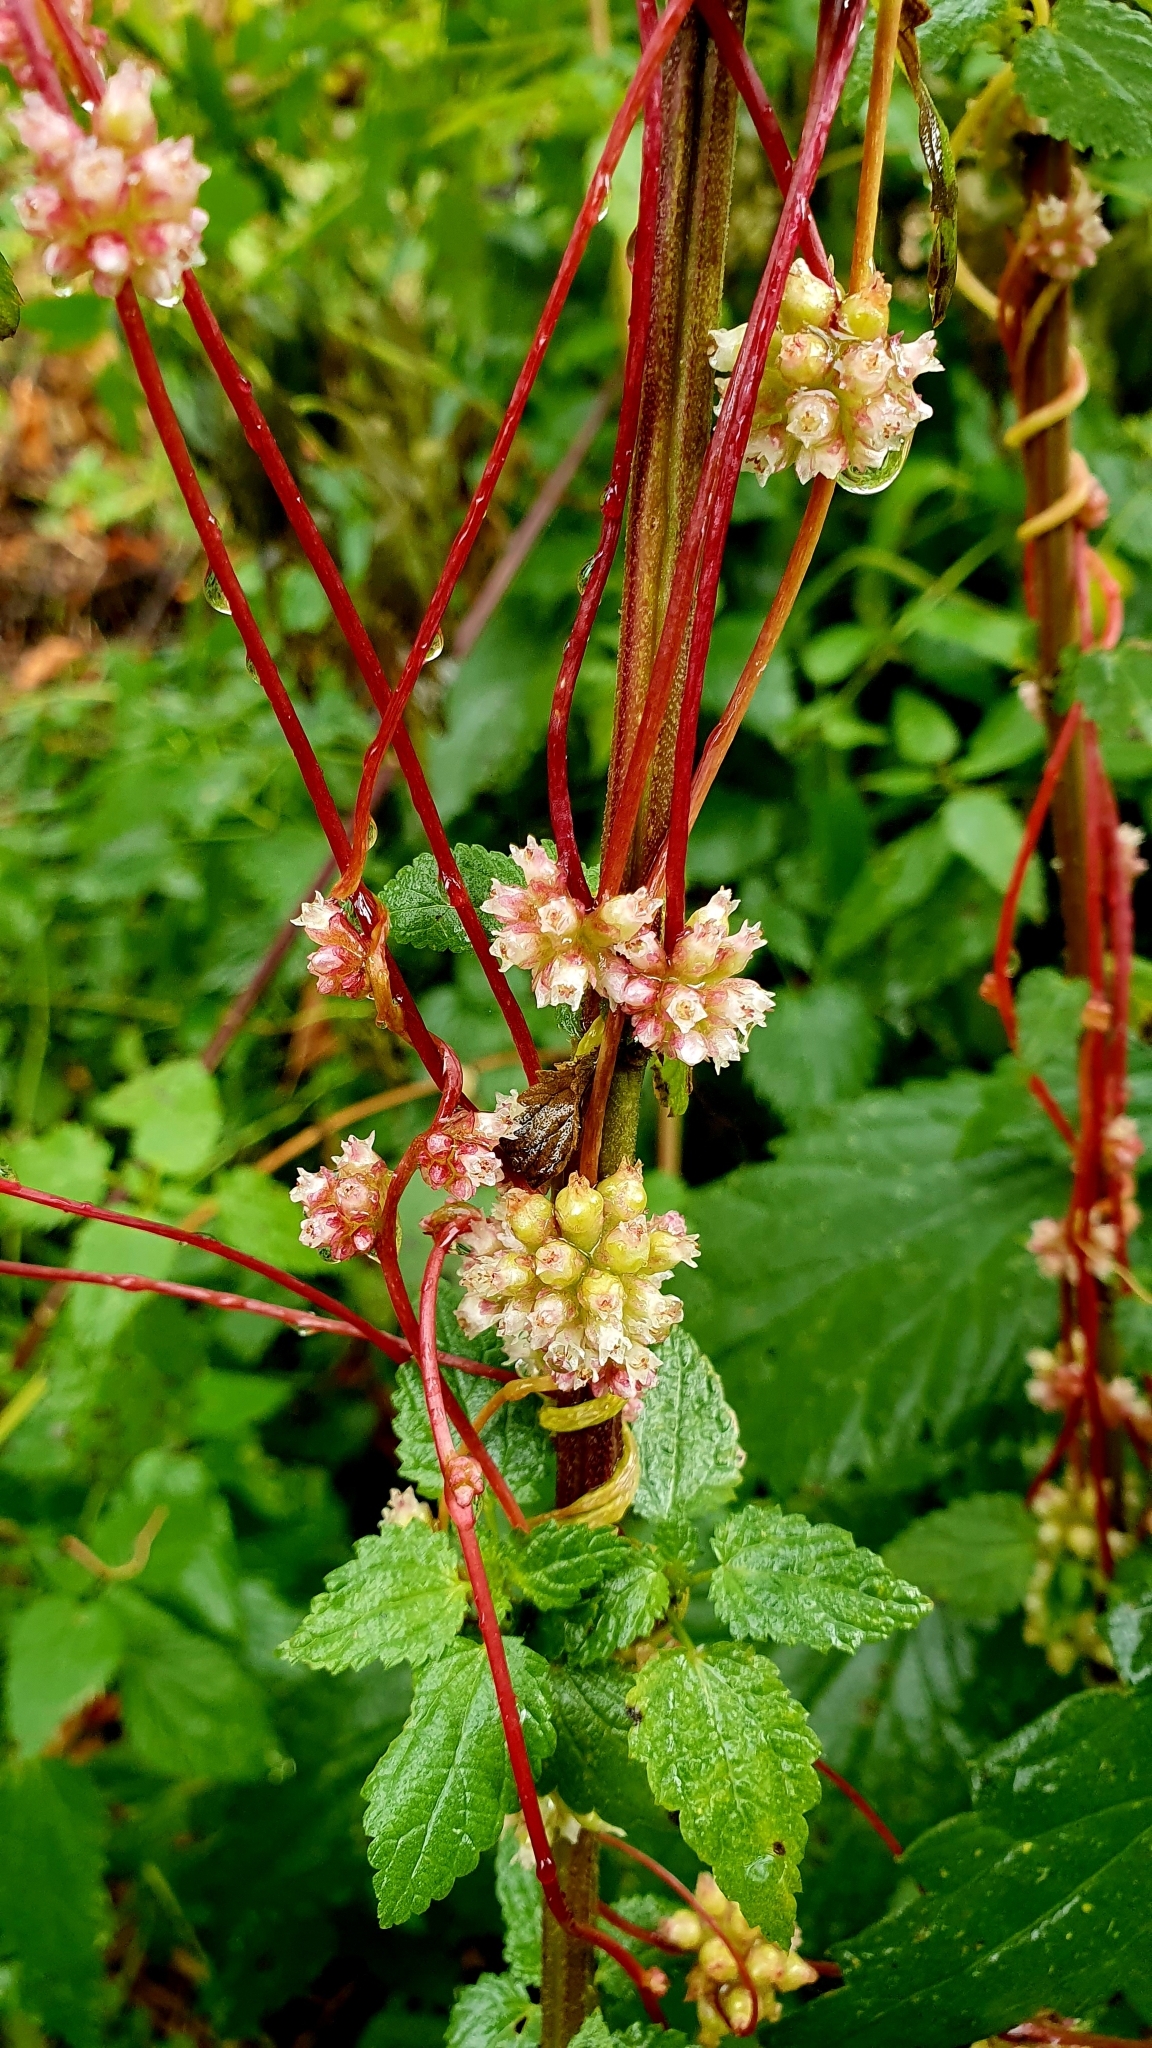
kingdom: Plantae
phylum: Tracheophyta
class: Magnoliopsida
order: Solanales
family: Convolvulaceae
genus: Cuscuta
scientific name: Cuscuta europaea
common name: Greater dodder
